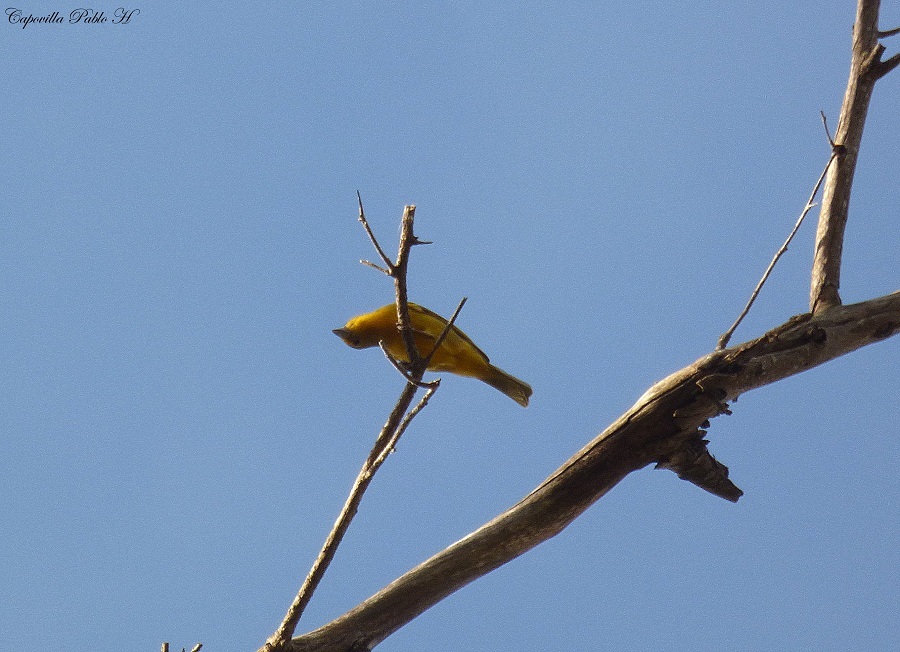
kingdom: Animalia
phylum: Chordata
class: Aves
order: Passeriformes
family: Cardinalidae
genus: Piranga
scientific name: Piranga flava
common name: Red tanager
